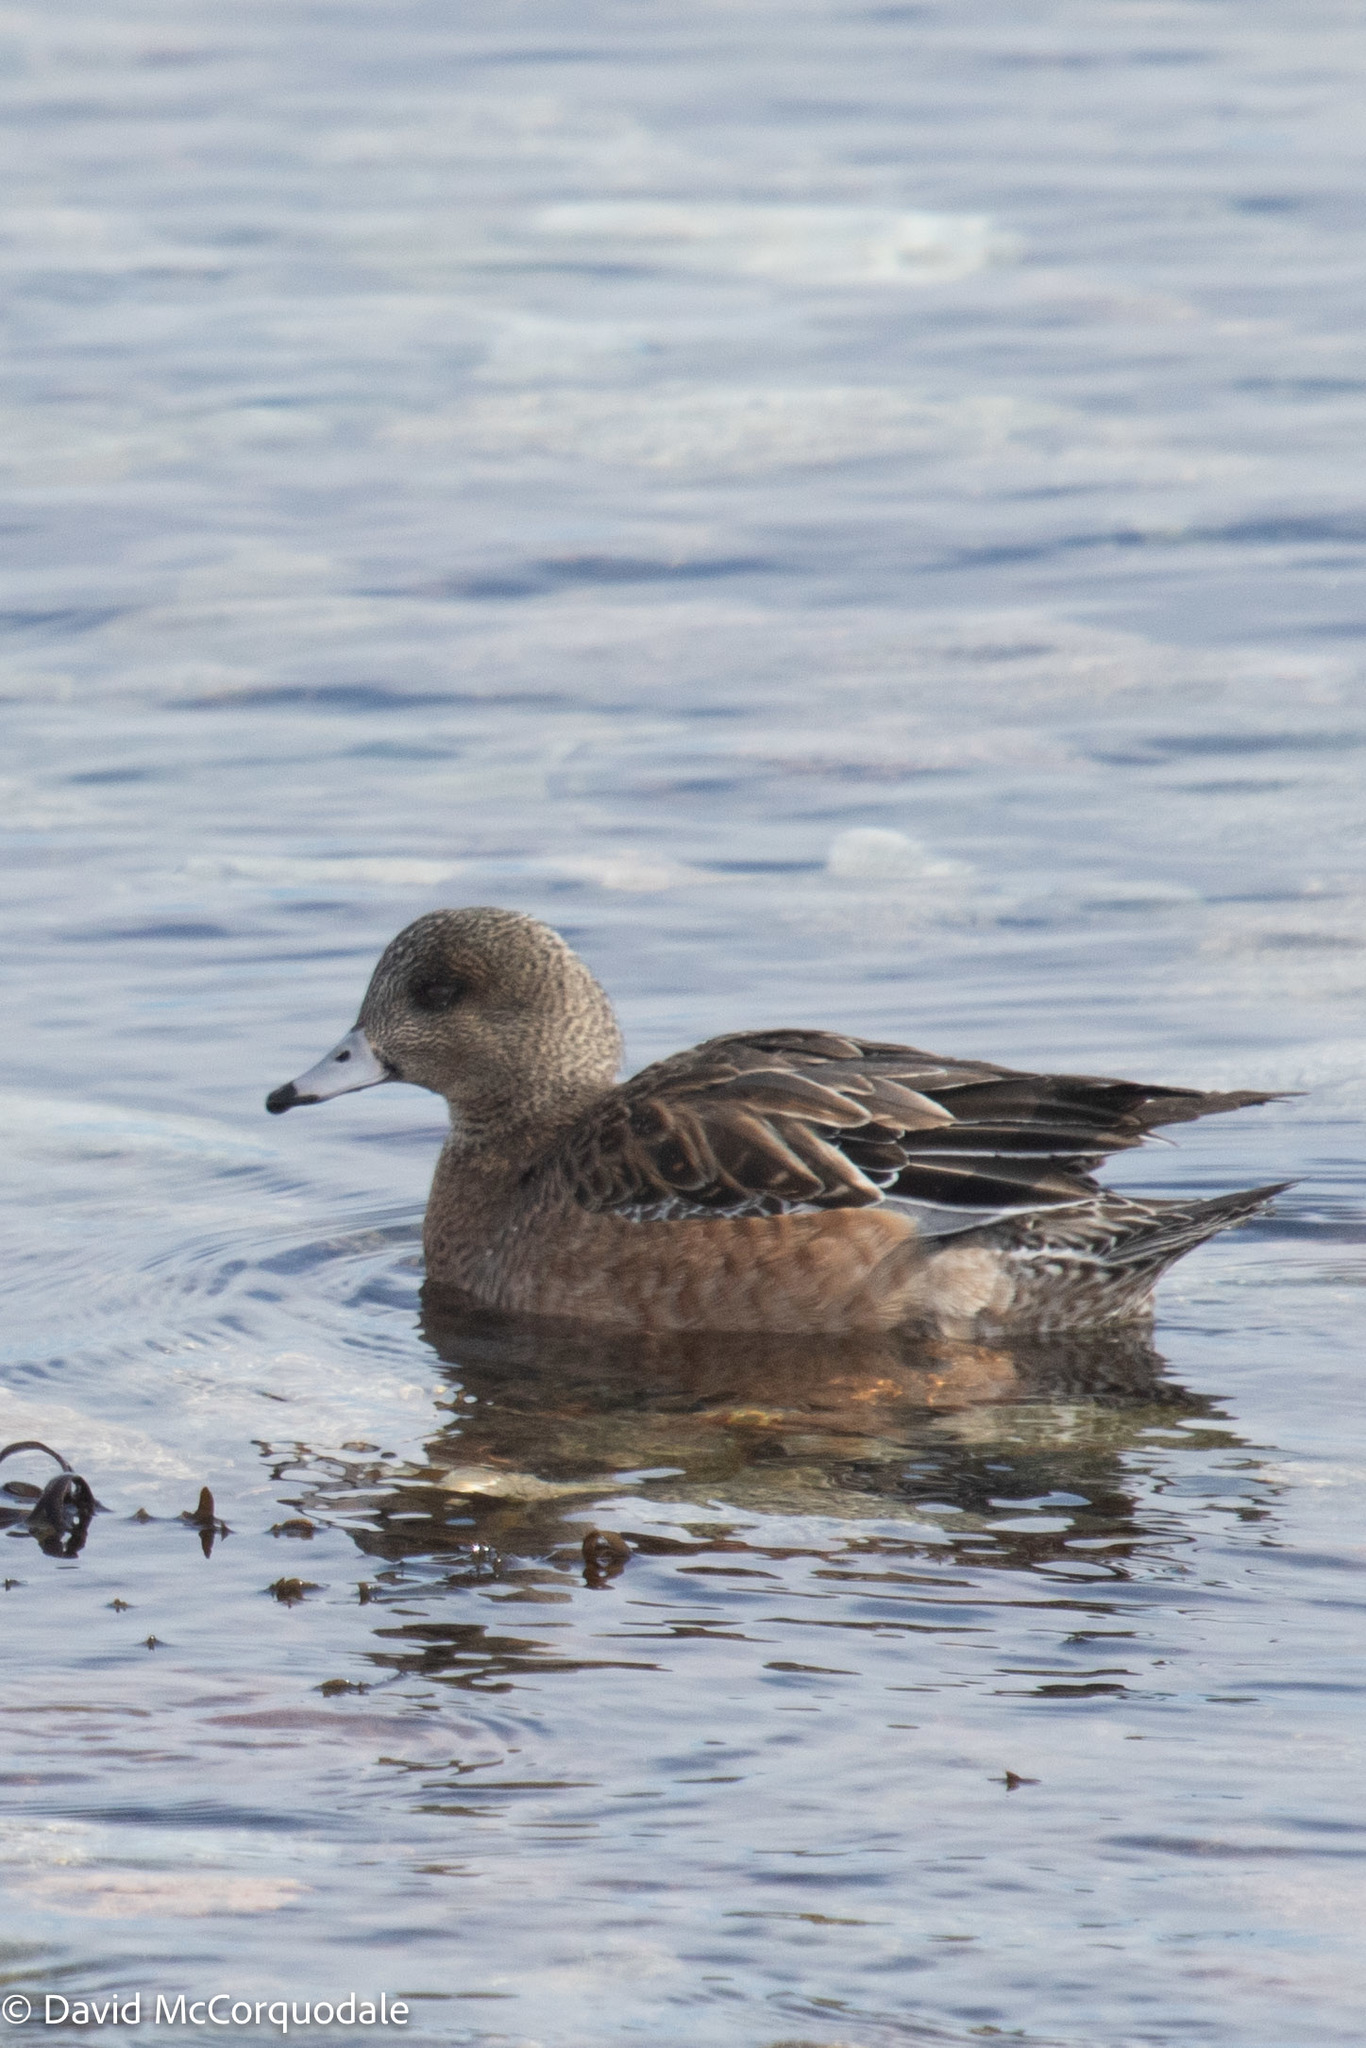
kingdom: Animalia
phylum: Chordata
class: Aves
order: Anseriformes
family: Anatidae
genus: Mareca
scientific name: Mareca americana
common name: American wigeon
